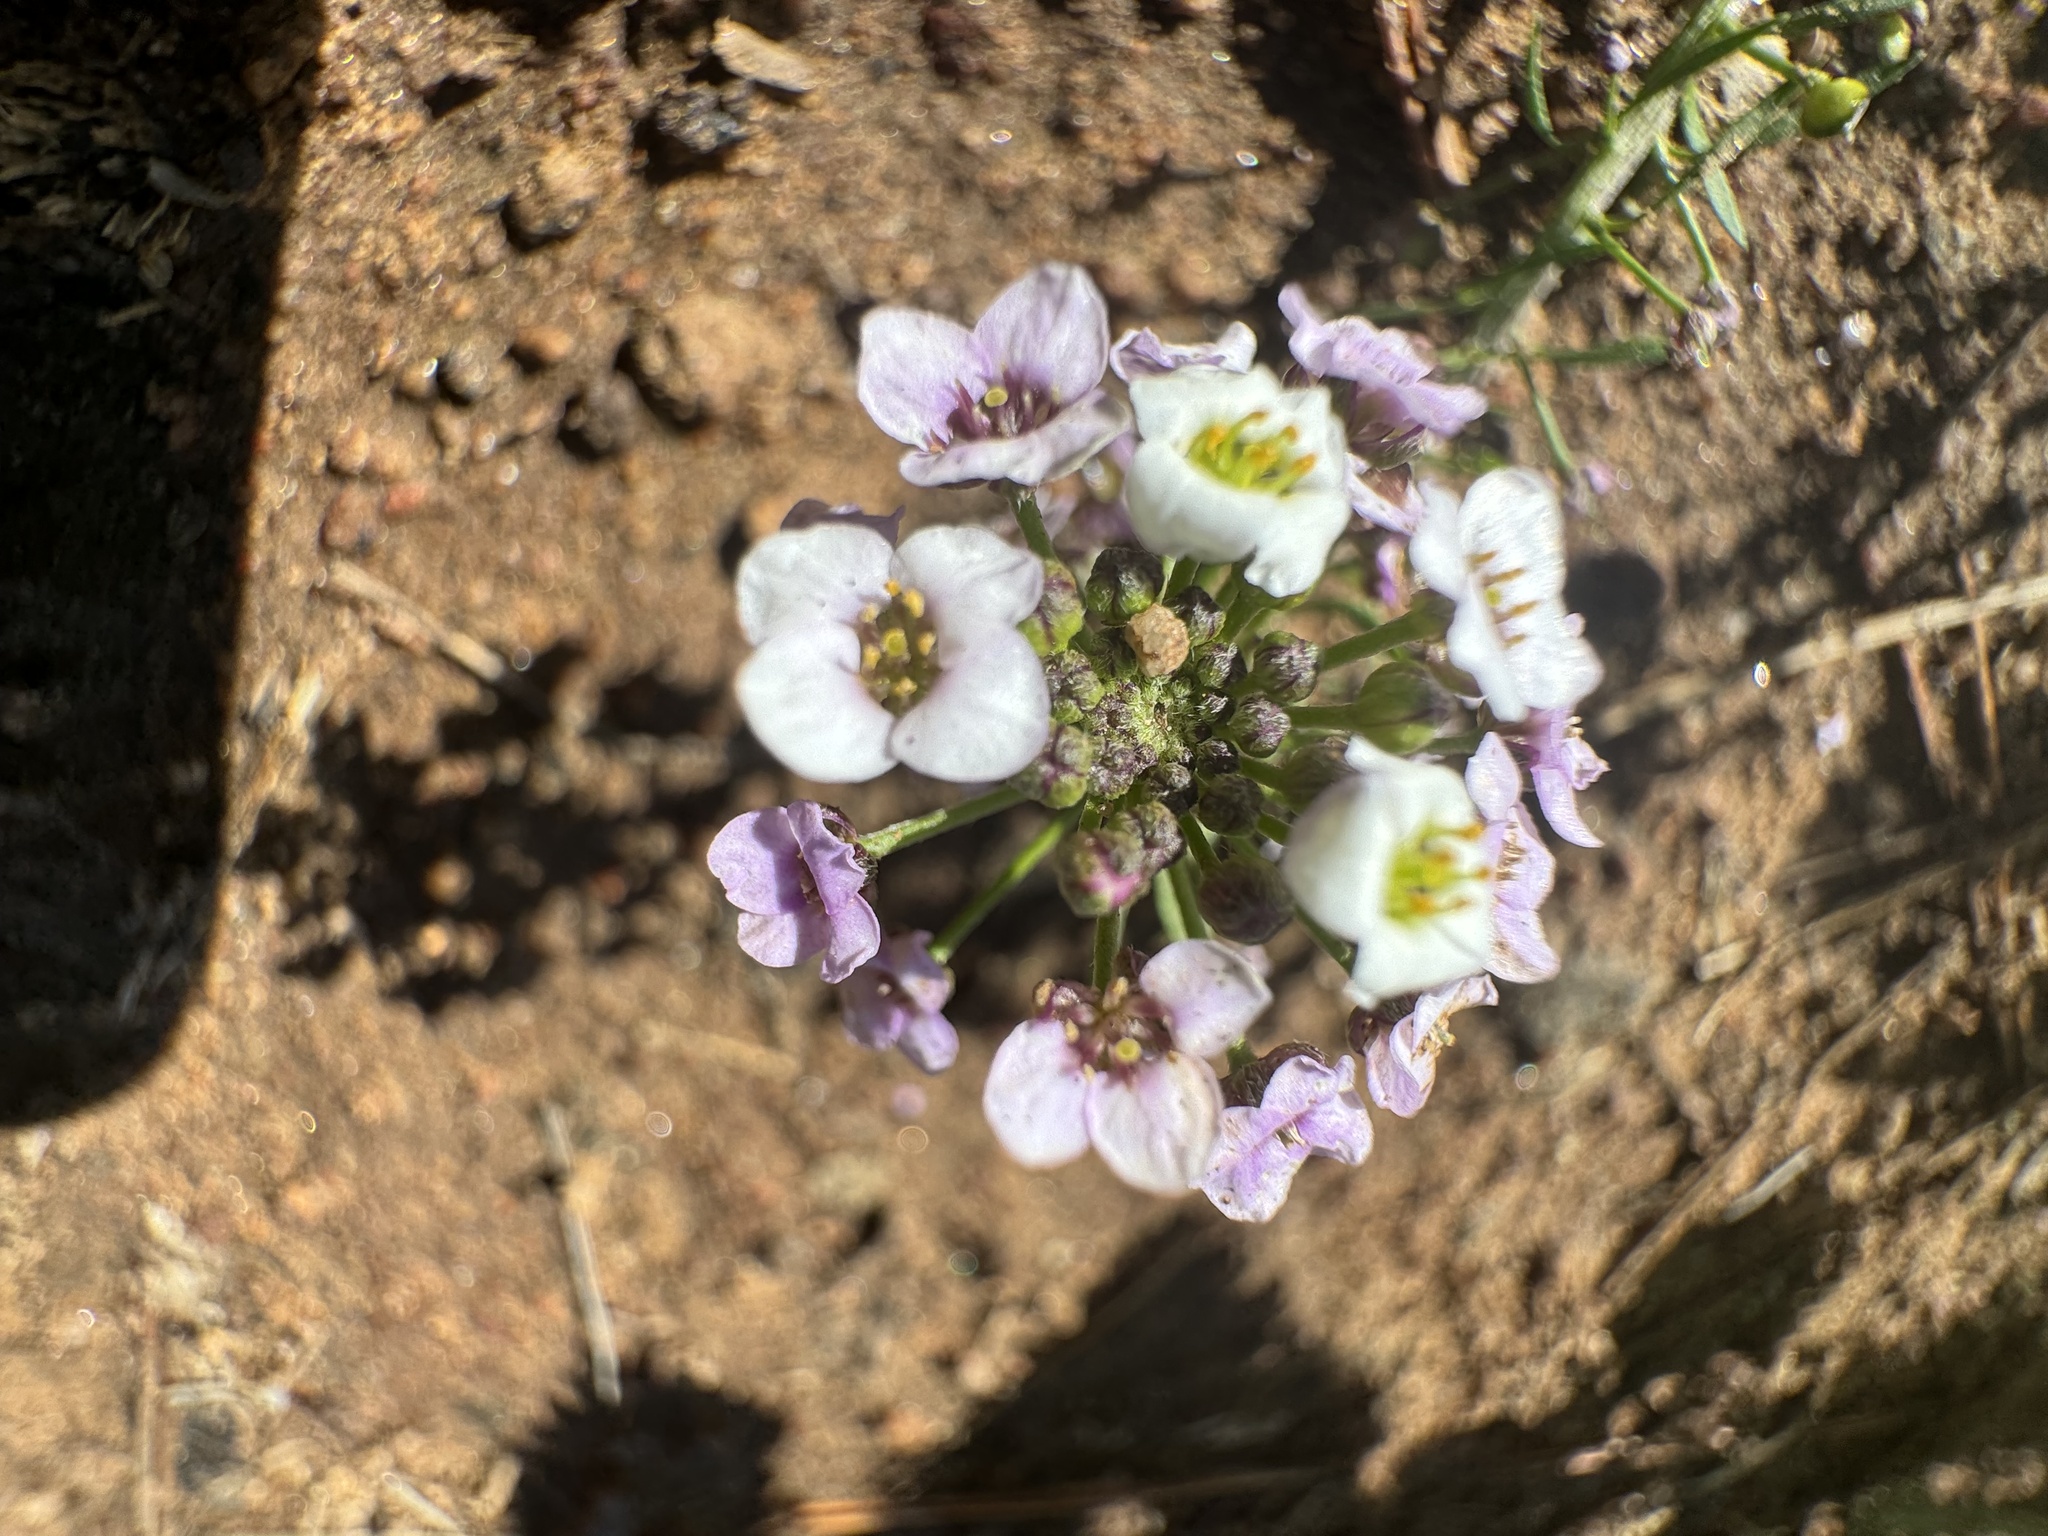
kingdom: Plantae
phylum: Tracheophyta
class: Magnoliopsida
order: Brassicales
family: Brassicaceae
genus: Lobularia
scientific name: Lobularia maritima
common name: Sweet alison
